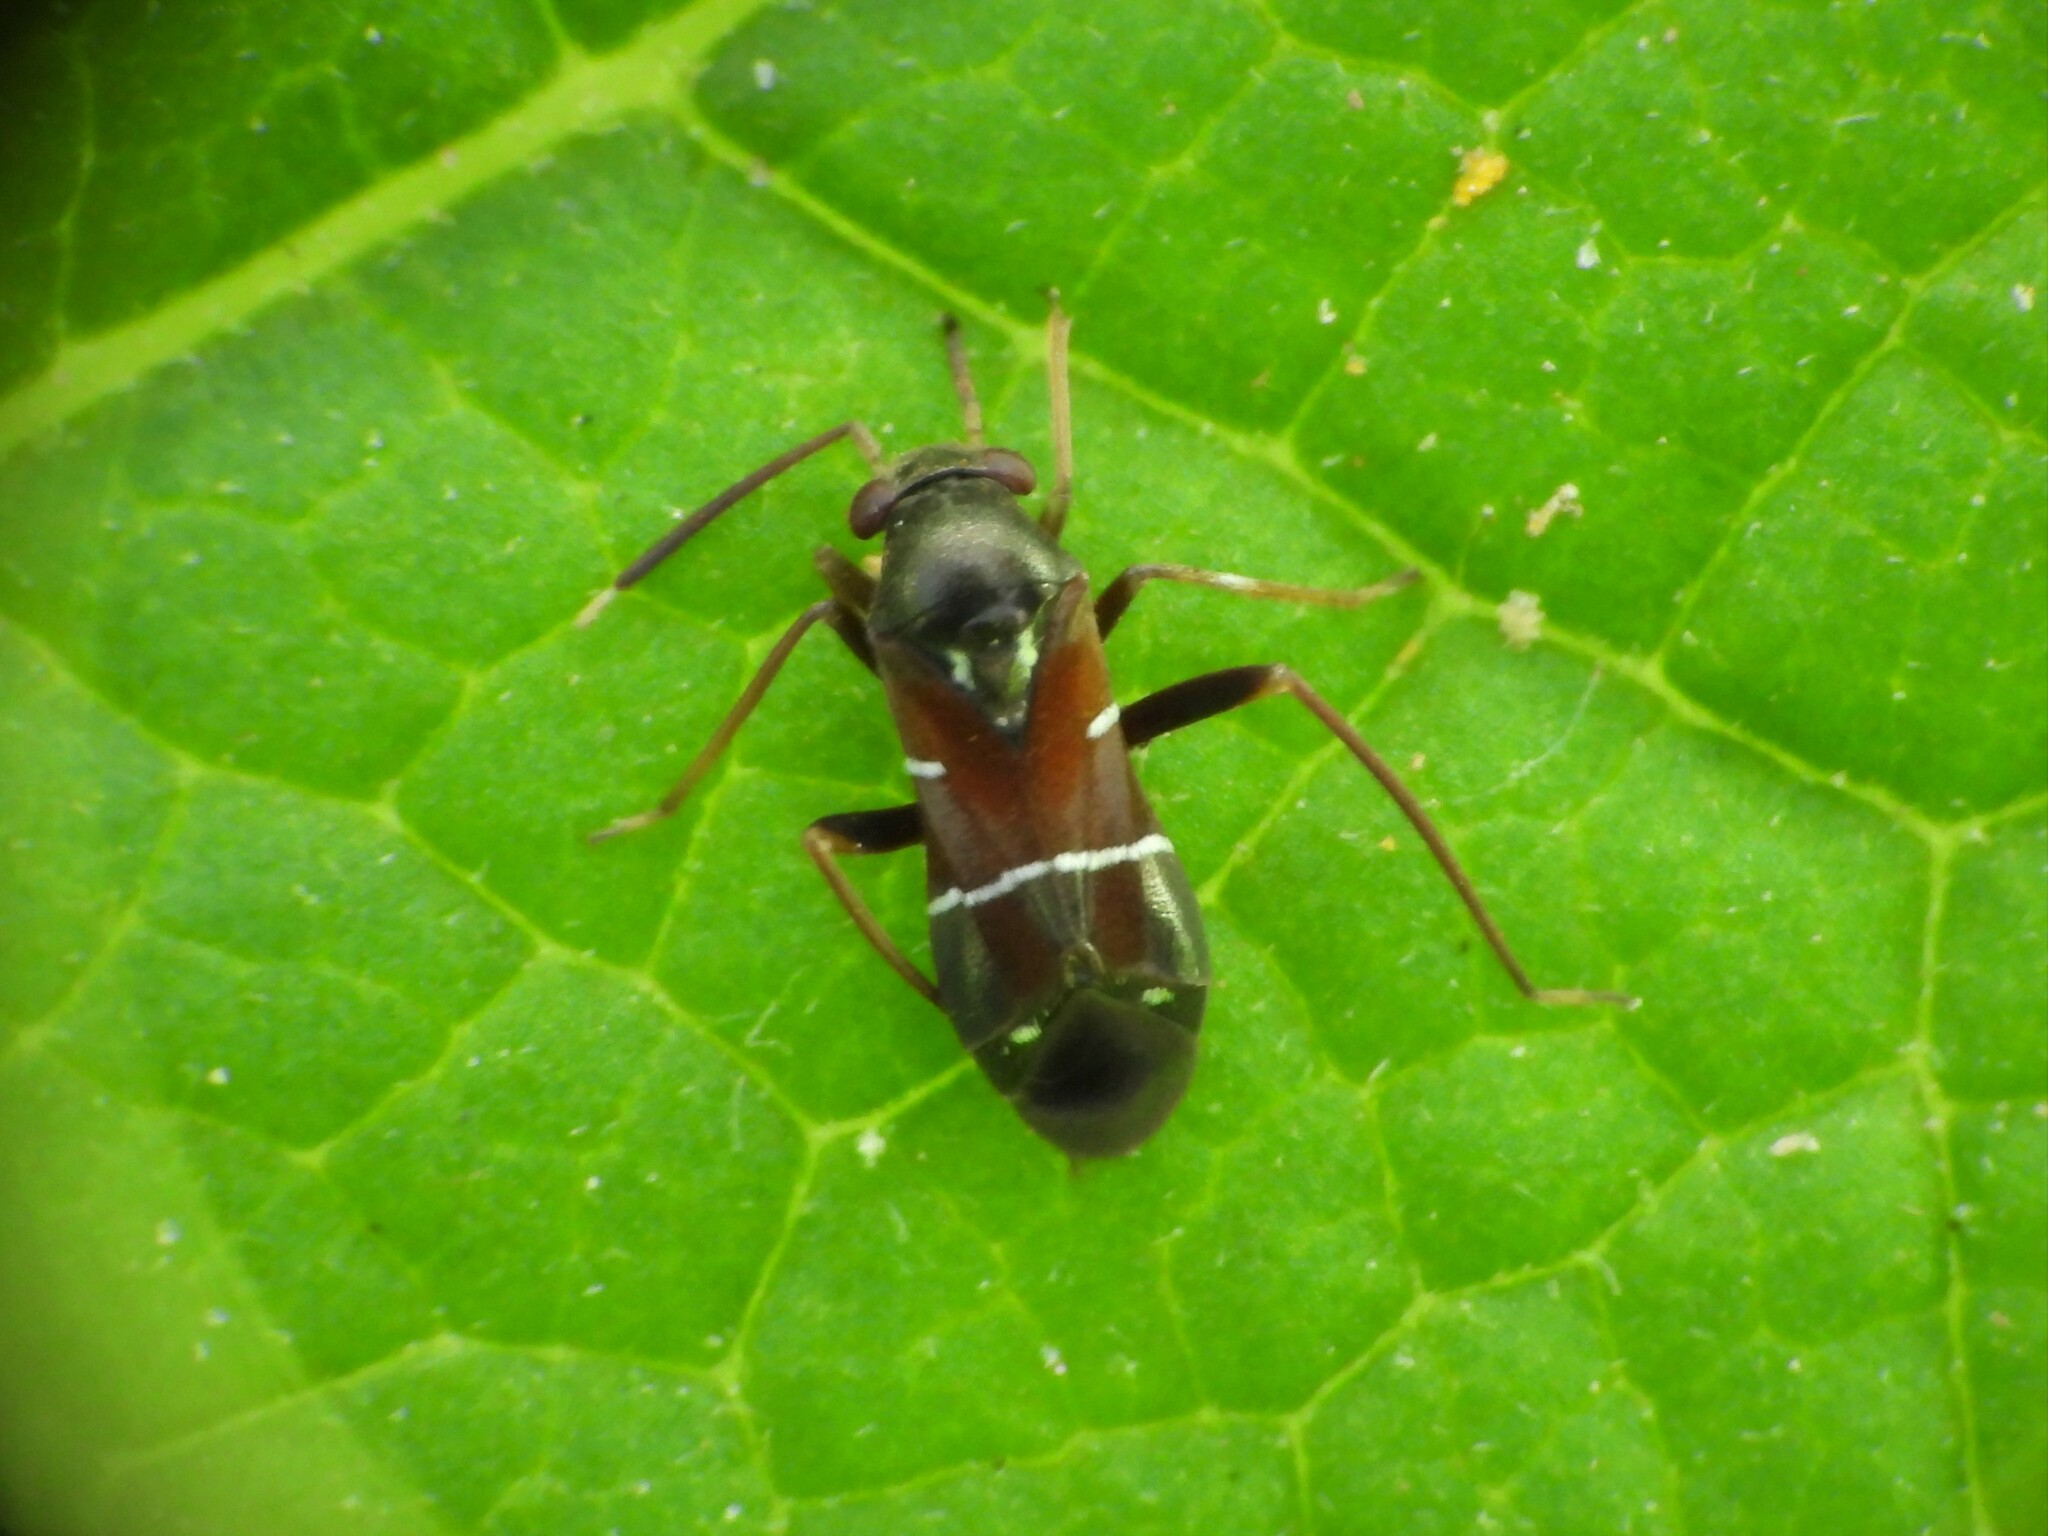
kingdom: Animalia
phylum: Arthropoda
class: Insecta
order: Hemiptera
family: Miridae
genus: Pilophorus
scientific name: Pilophorus perplexus
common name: Plant bug
